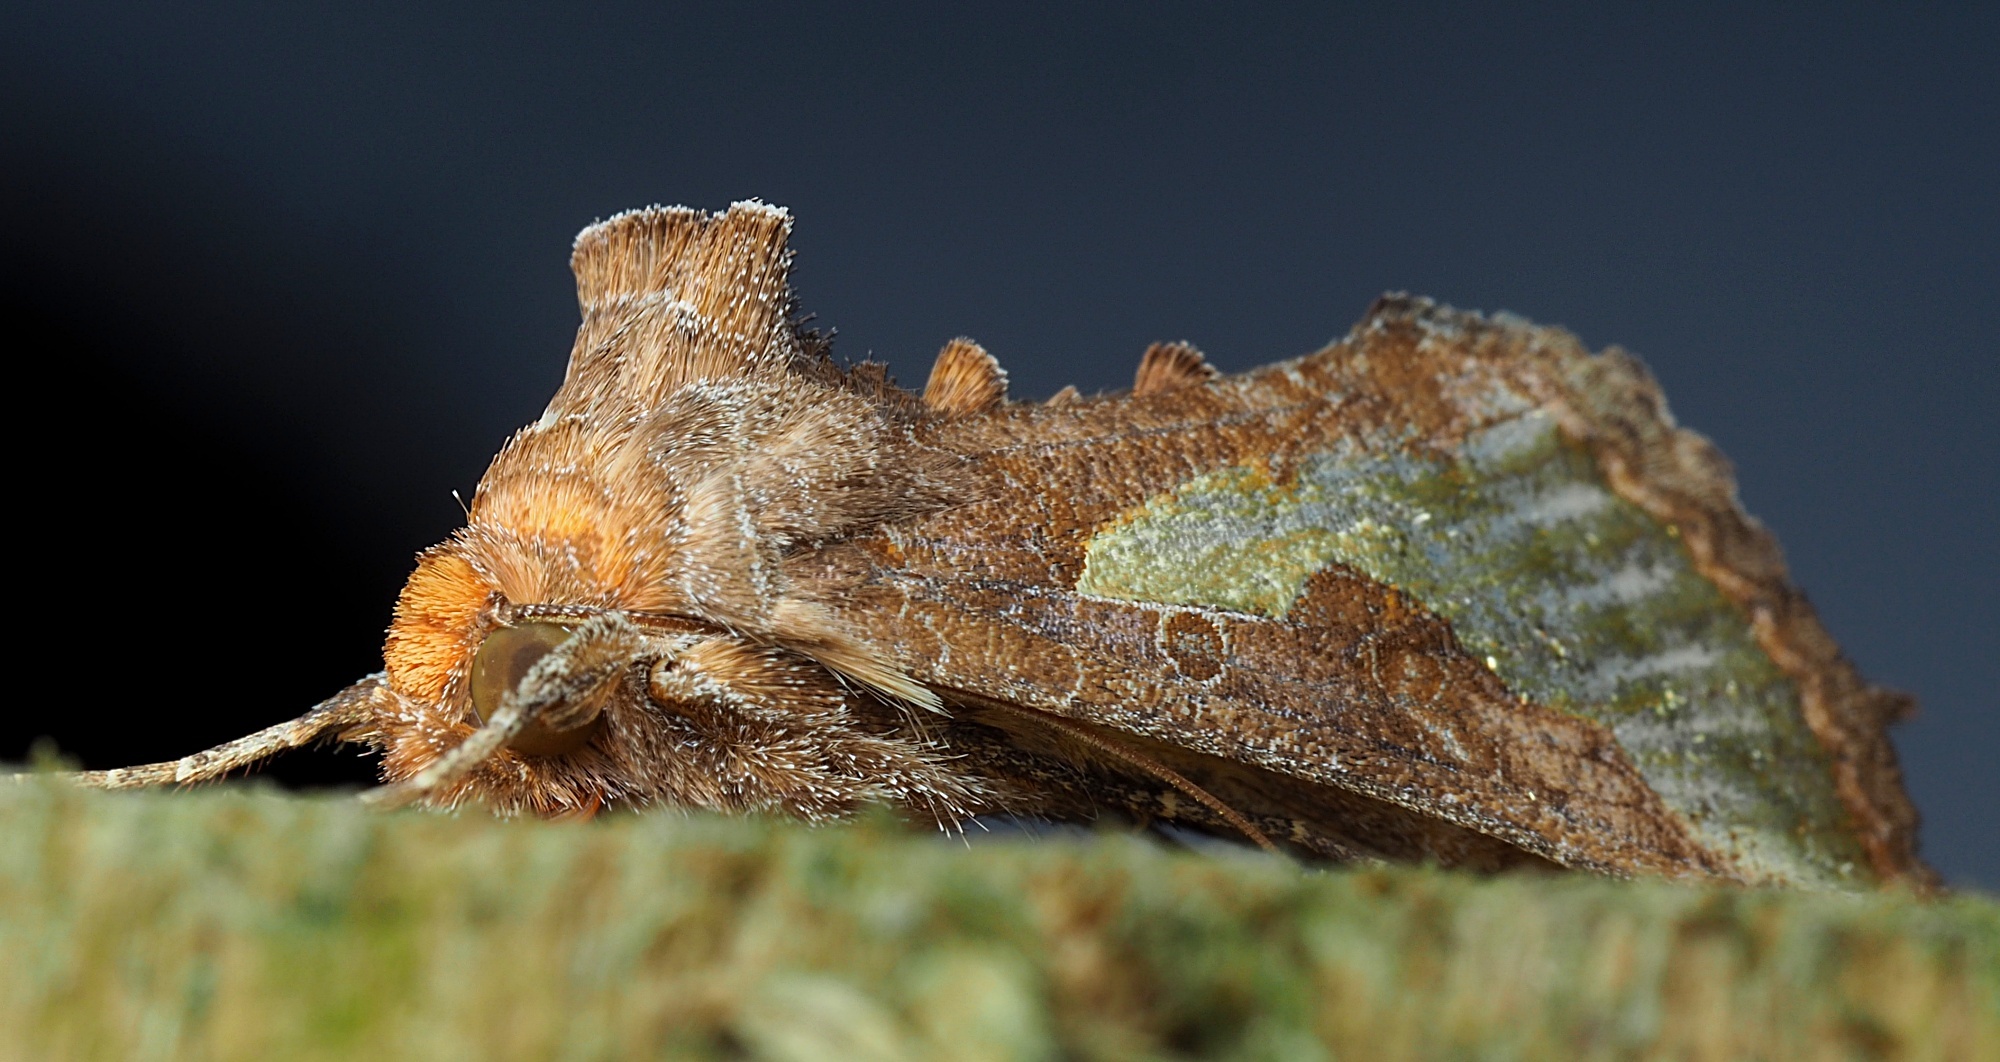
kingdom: Animalia
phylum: Arthropoda
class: Insecta
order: Lepidoptera
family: Noctuidae
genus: Thysanoplusia
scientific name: Thysanoplusia orichalcea
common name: Slender burnished brass, golden plusia
